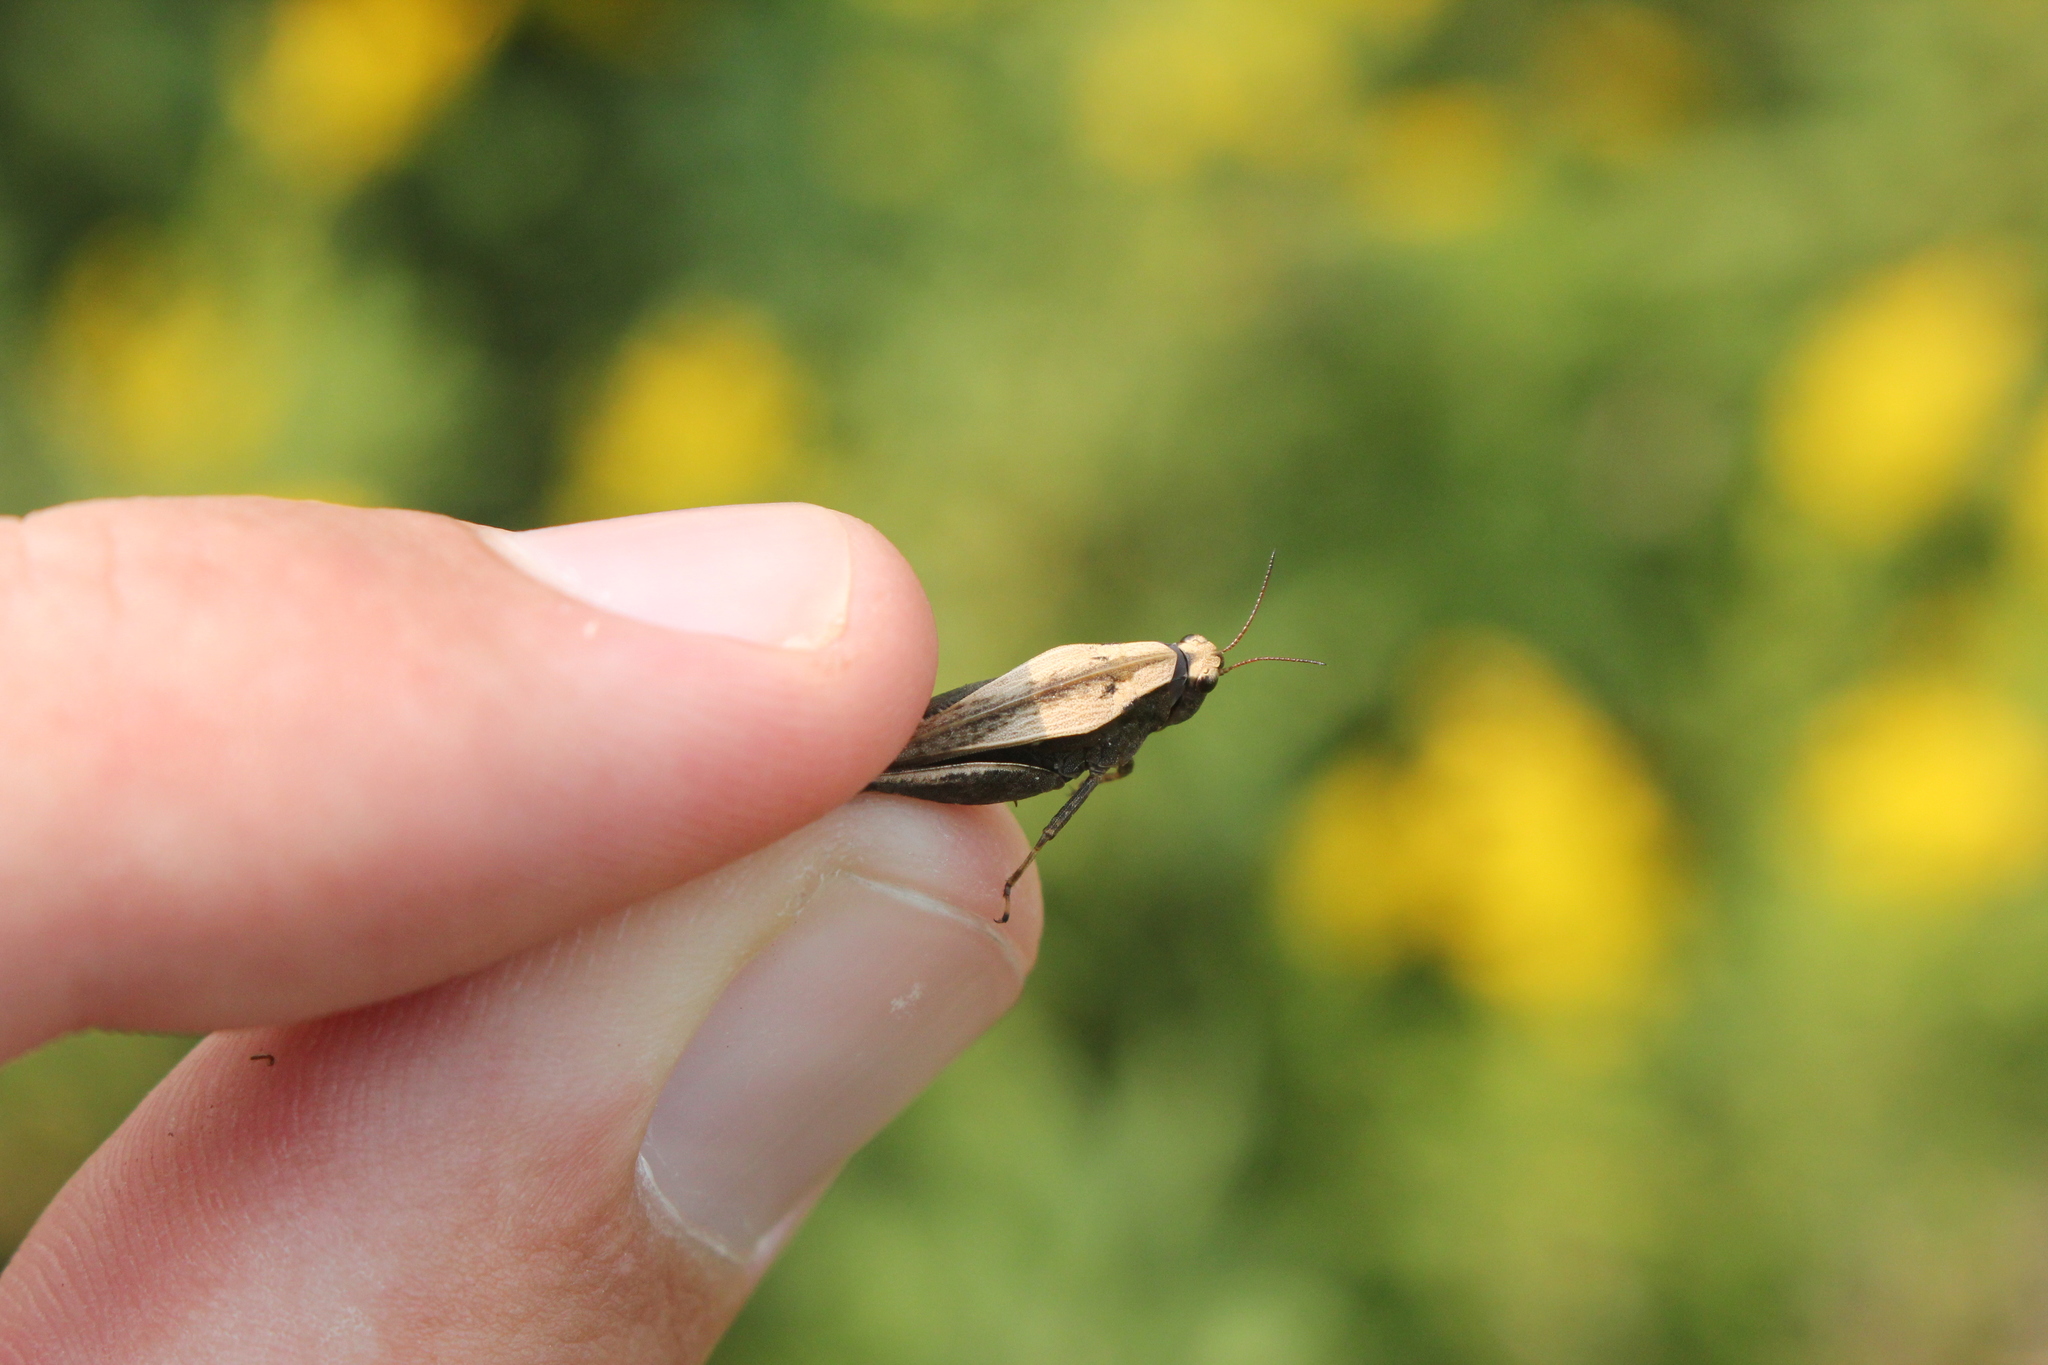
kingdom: Animalia
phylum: Arthropoda
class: Insecta
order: Orthoptera
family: Tetrigidae
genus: Tettigidea
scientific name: Tettigidea laterale
